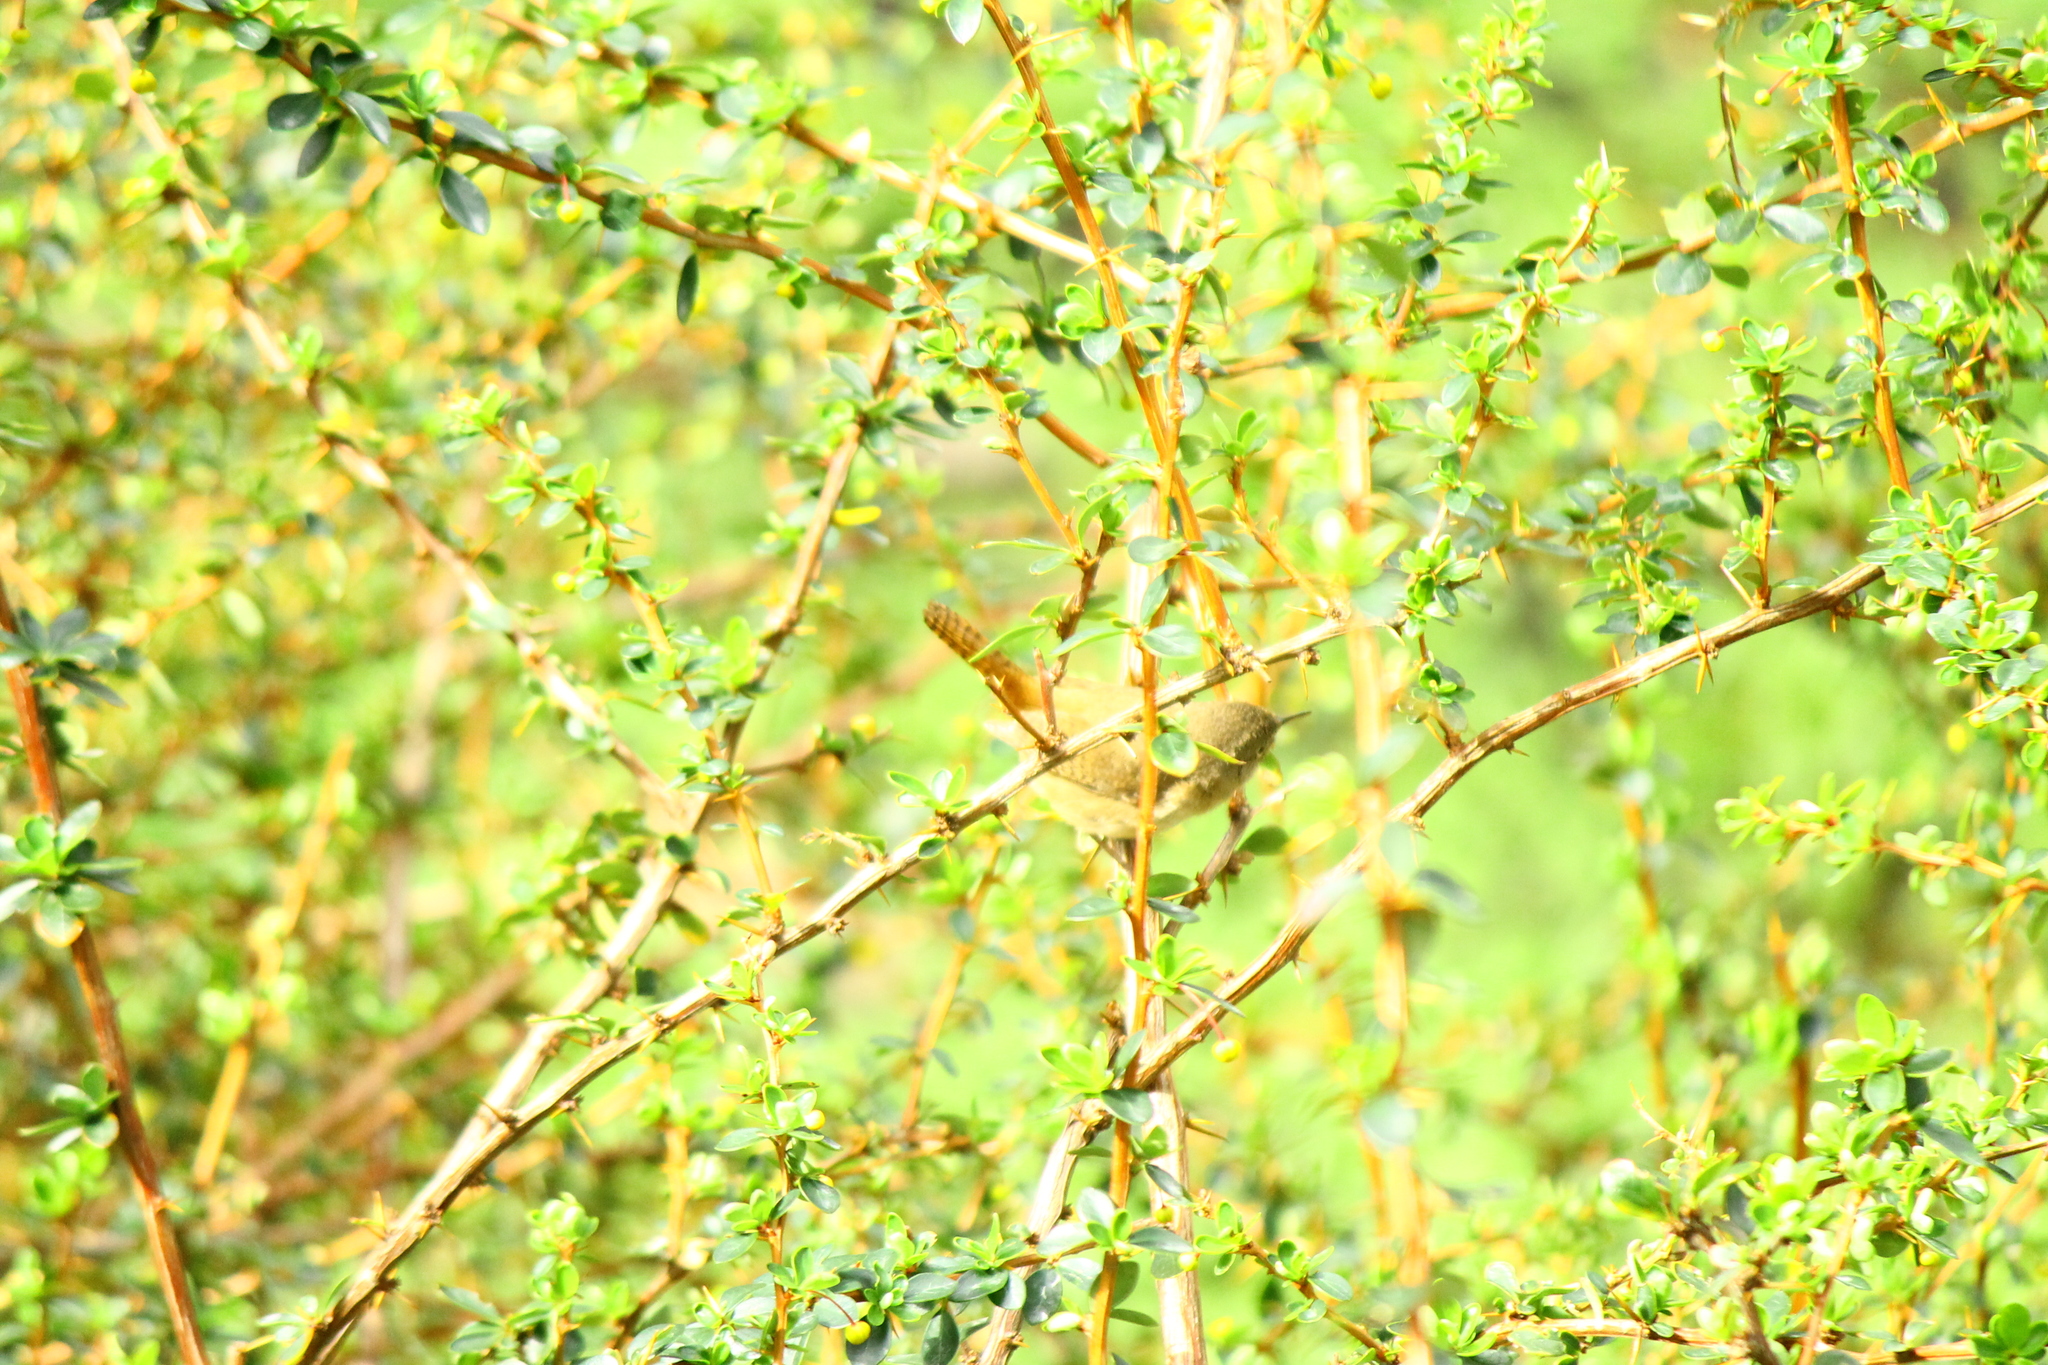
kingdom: Animalia
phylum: Chordata
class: Aves
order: Passeriformes
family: Troglodytidae
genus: Troglodytes
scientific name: Troglodytes aedon
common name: House wren
